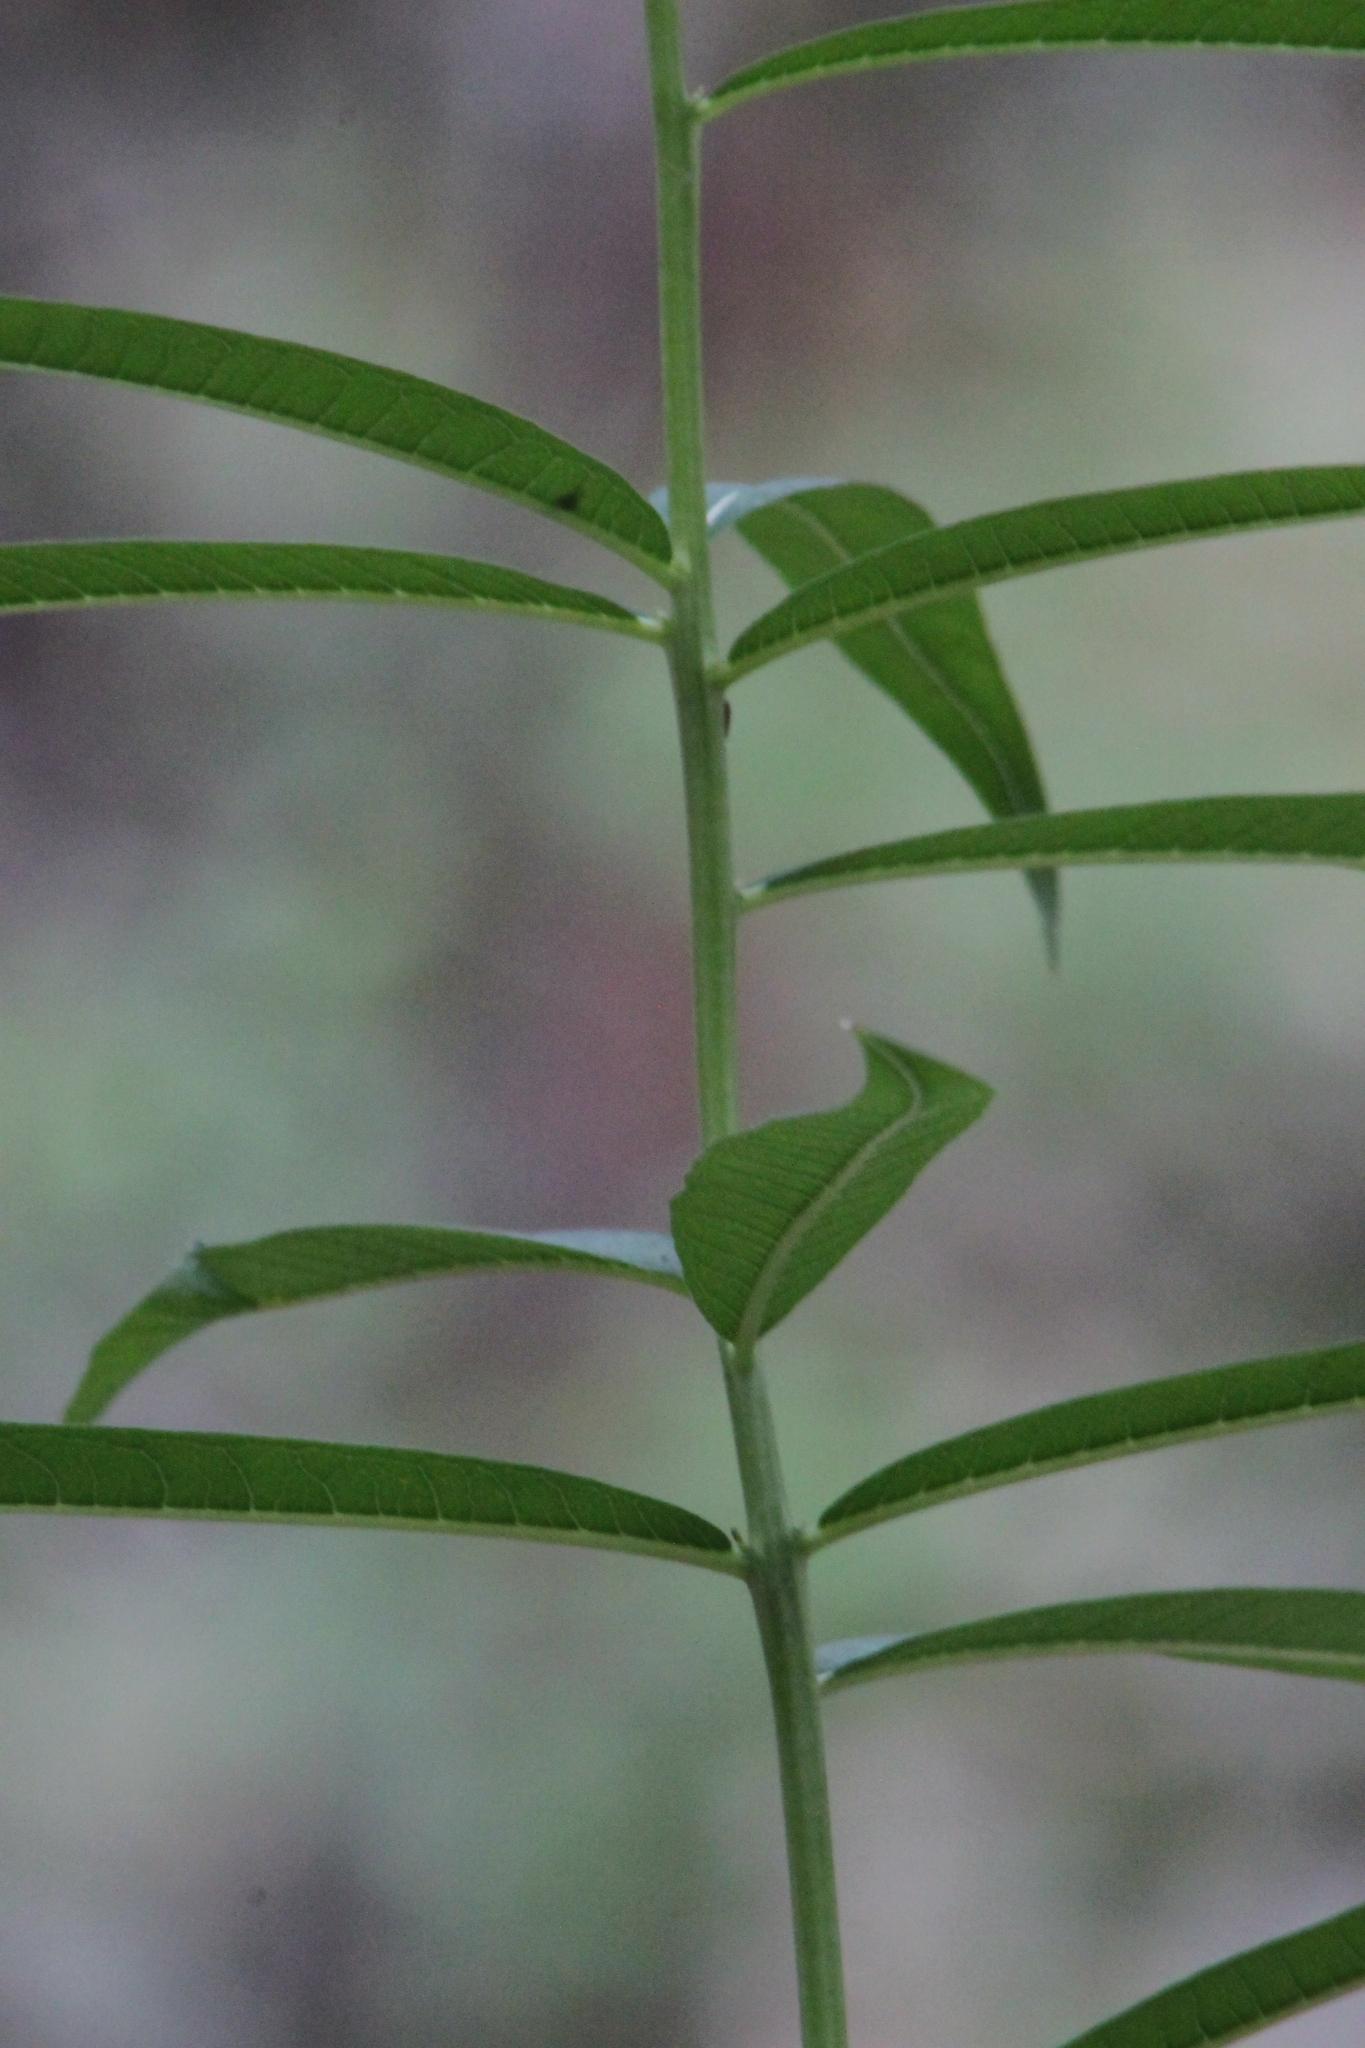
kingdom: Plantae
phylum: Tracheophyta
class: Magnoliopsida
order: Myrtales
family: Onagraceae
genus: Chamaenerion
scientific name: Chamaenerion angustifolium
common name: Fireweed
